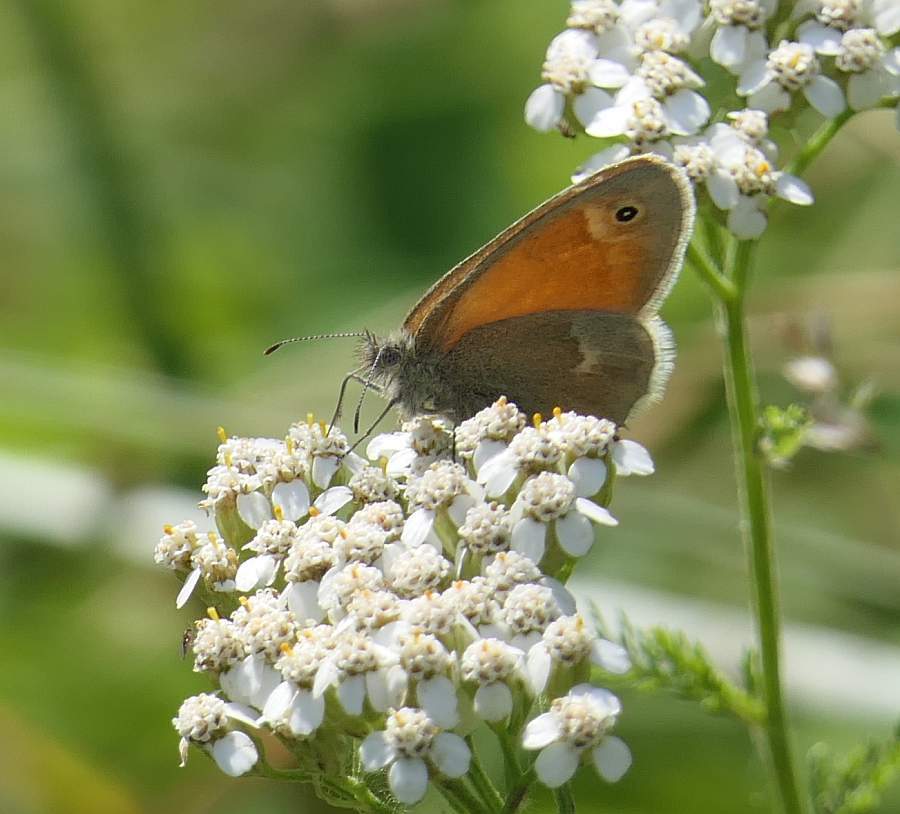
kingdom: Animalia
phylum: Arthropoda
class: Insecta
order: Lepidoptera
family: Nymphalidae
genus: Coenonympha
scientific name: Coenonympha california
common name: Common ringlet
